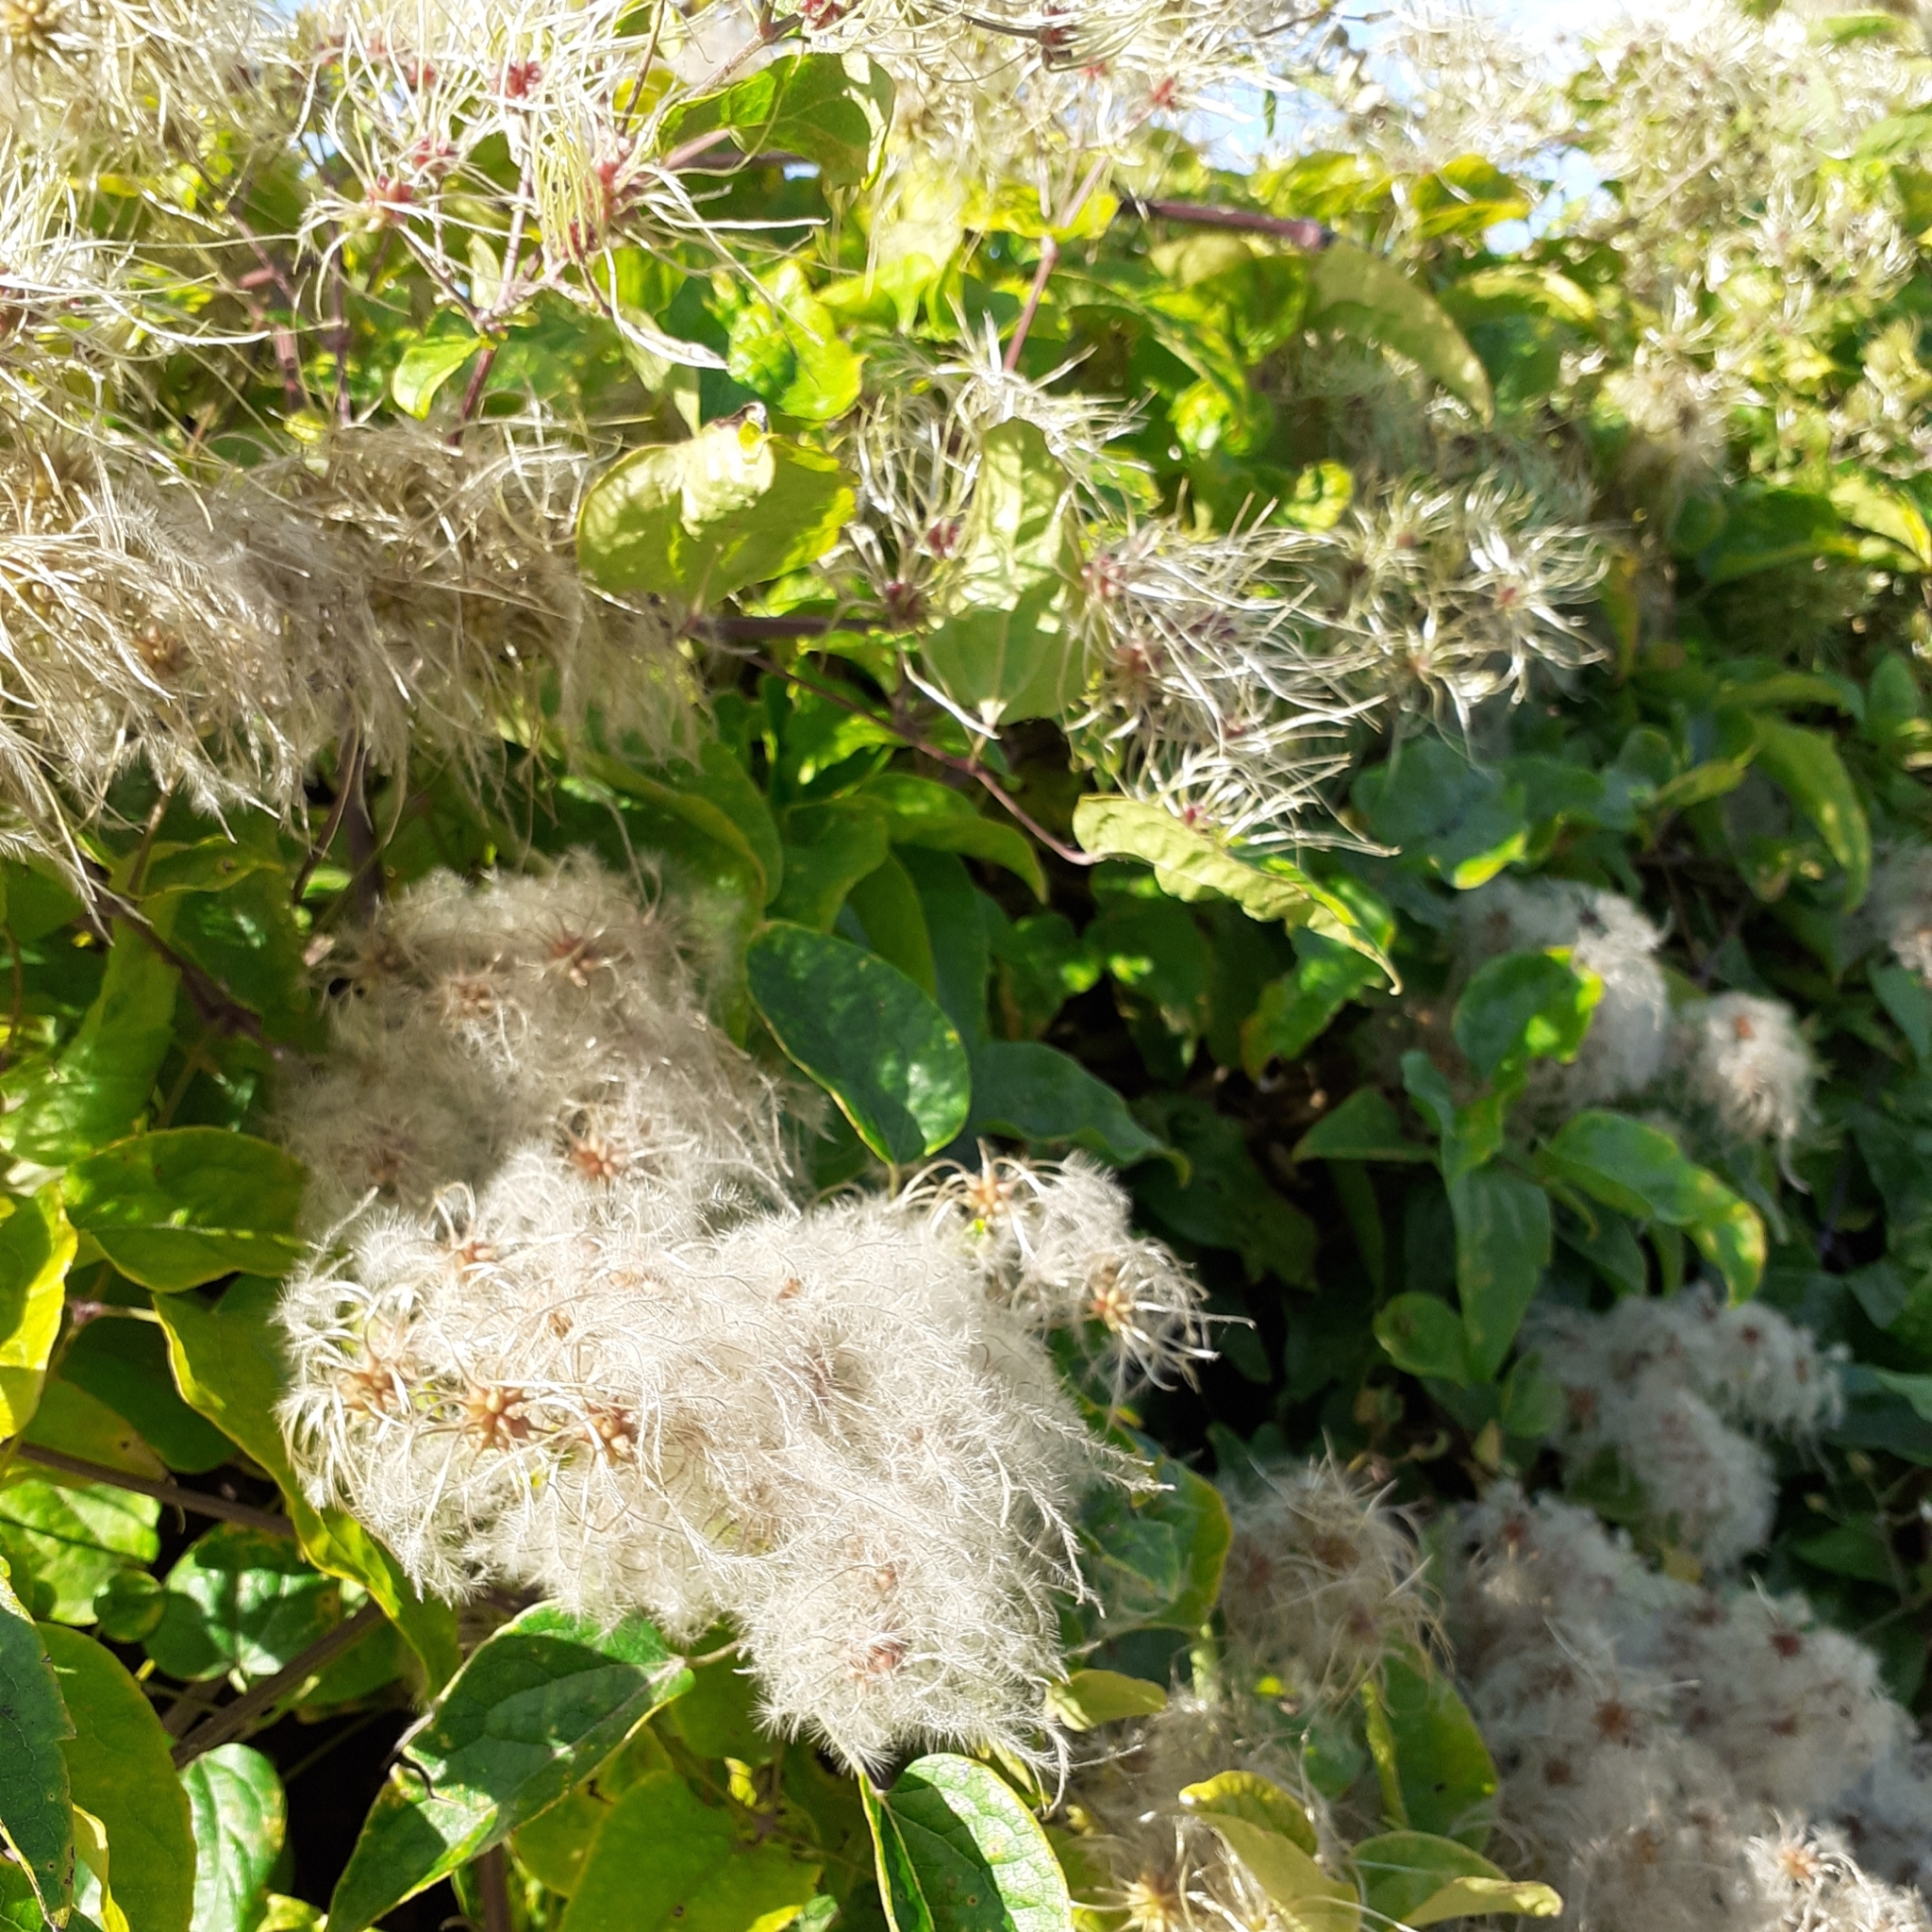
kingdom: Plantae
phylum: Tracheophyta
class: Magnoliopsida
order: Ranunculales
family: Ranunculaceae
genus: Clematis
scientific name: Clematis vitalba
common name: Evergreen clematis
